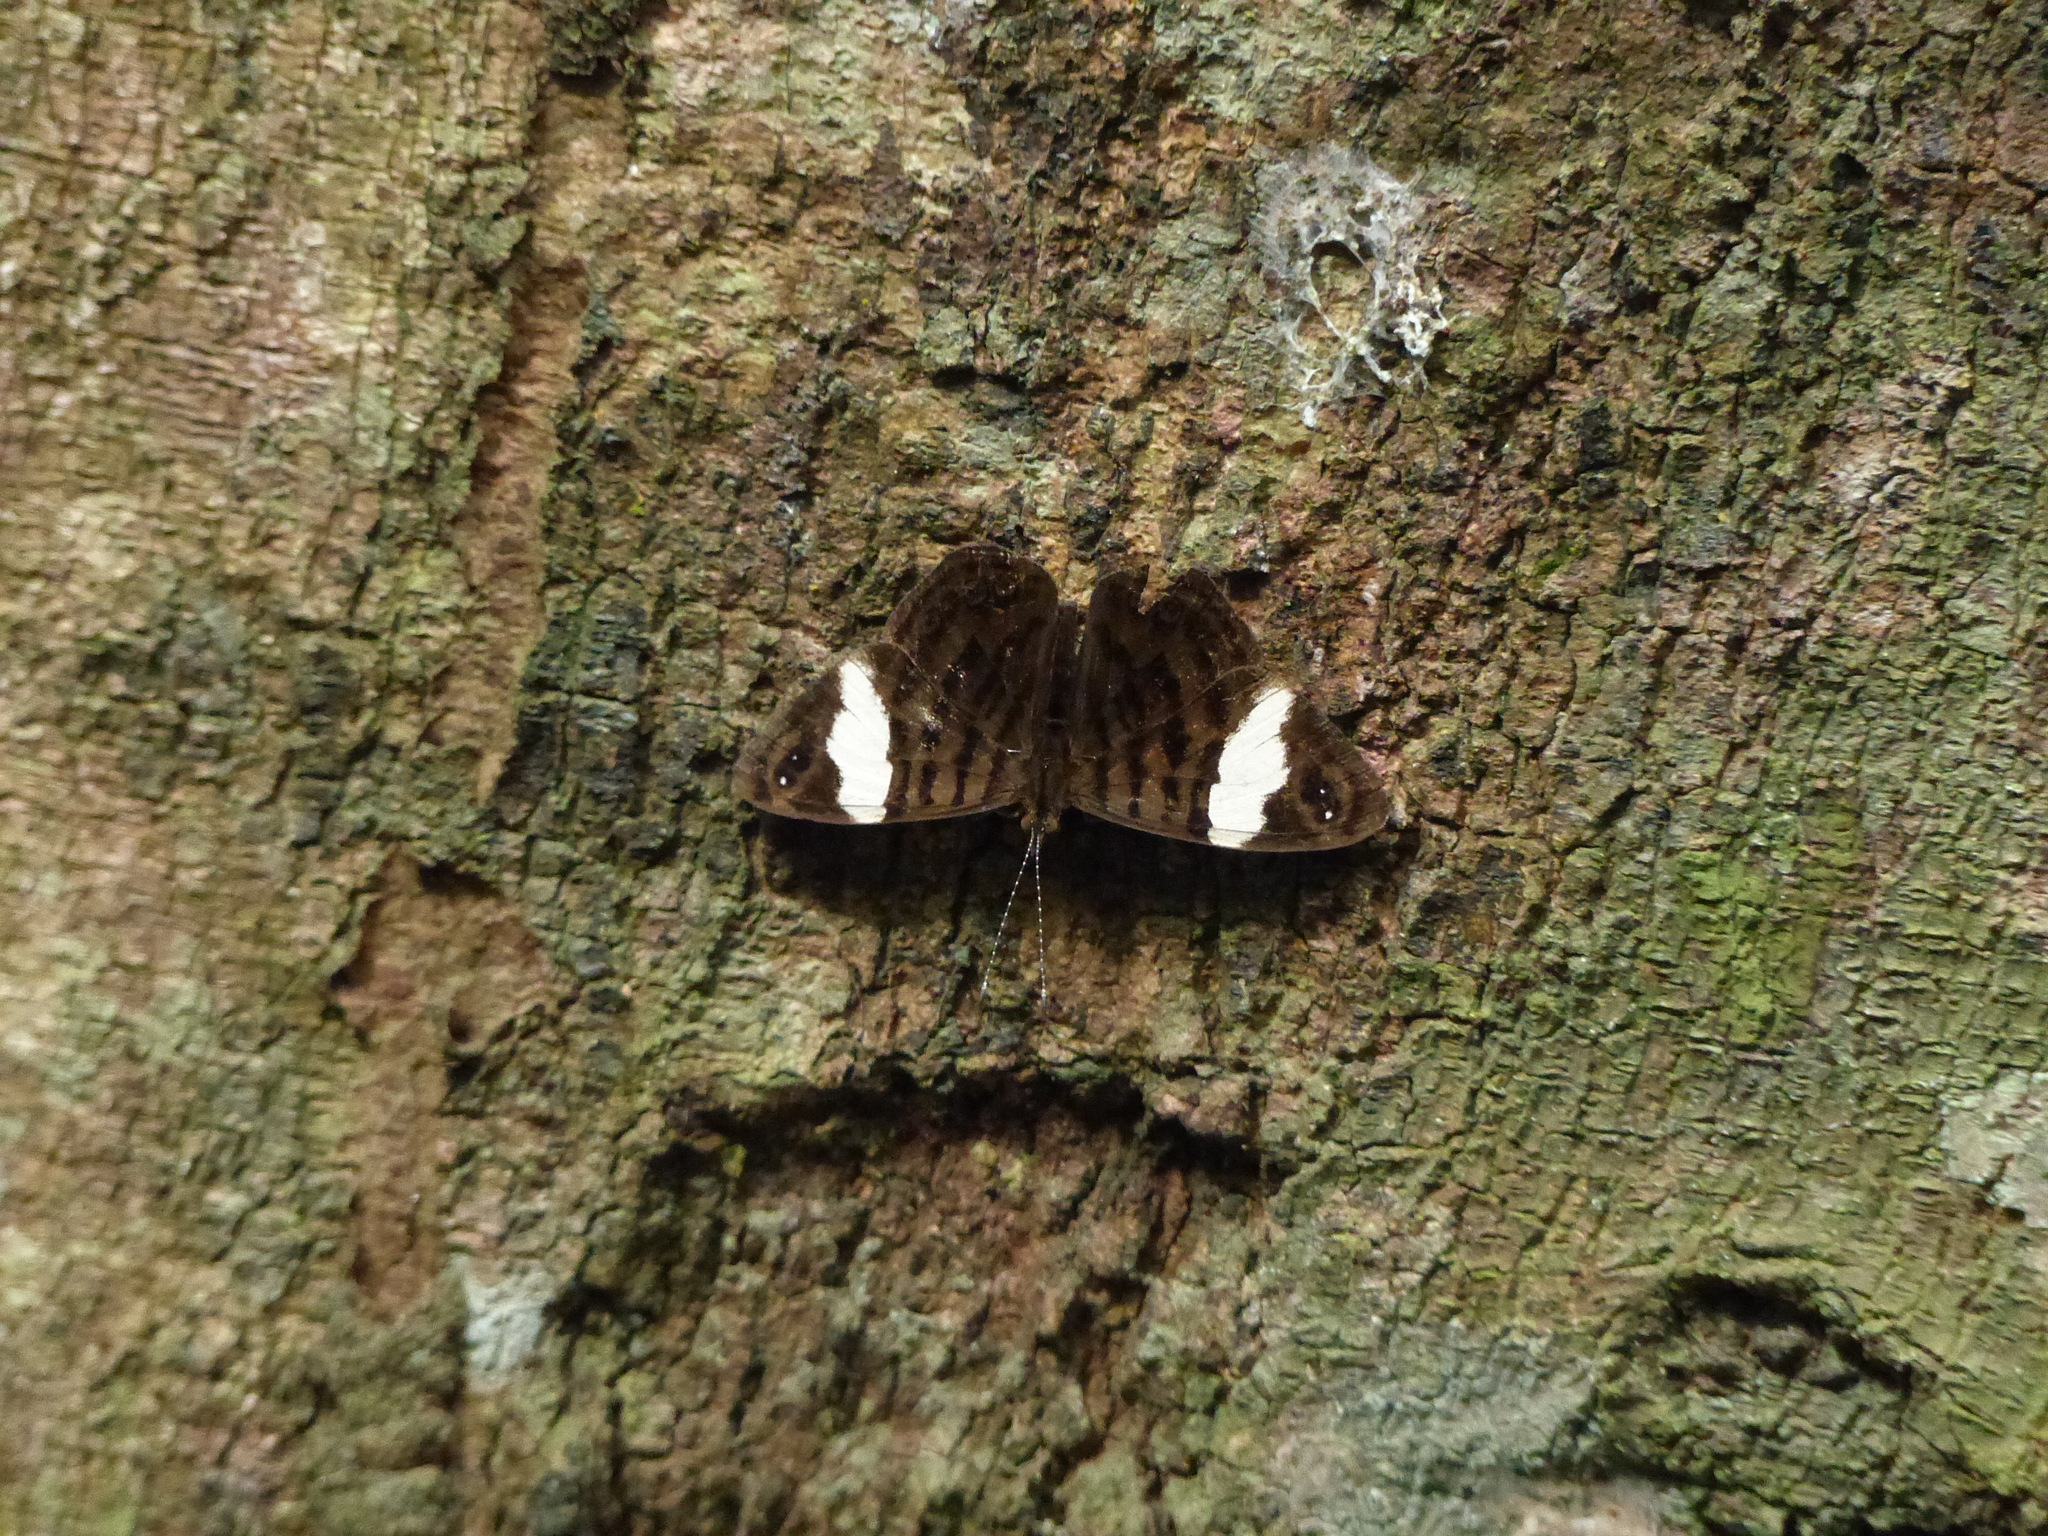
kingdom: Animalia
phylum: Arthropoda
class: Insecta
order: Lepidoptera
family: Nymphalidae
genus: Ectima
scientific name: Ectima thecla
